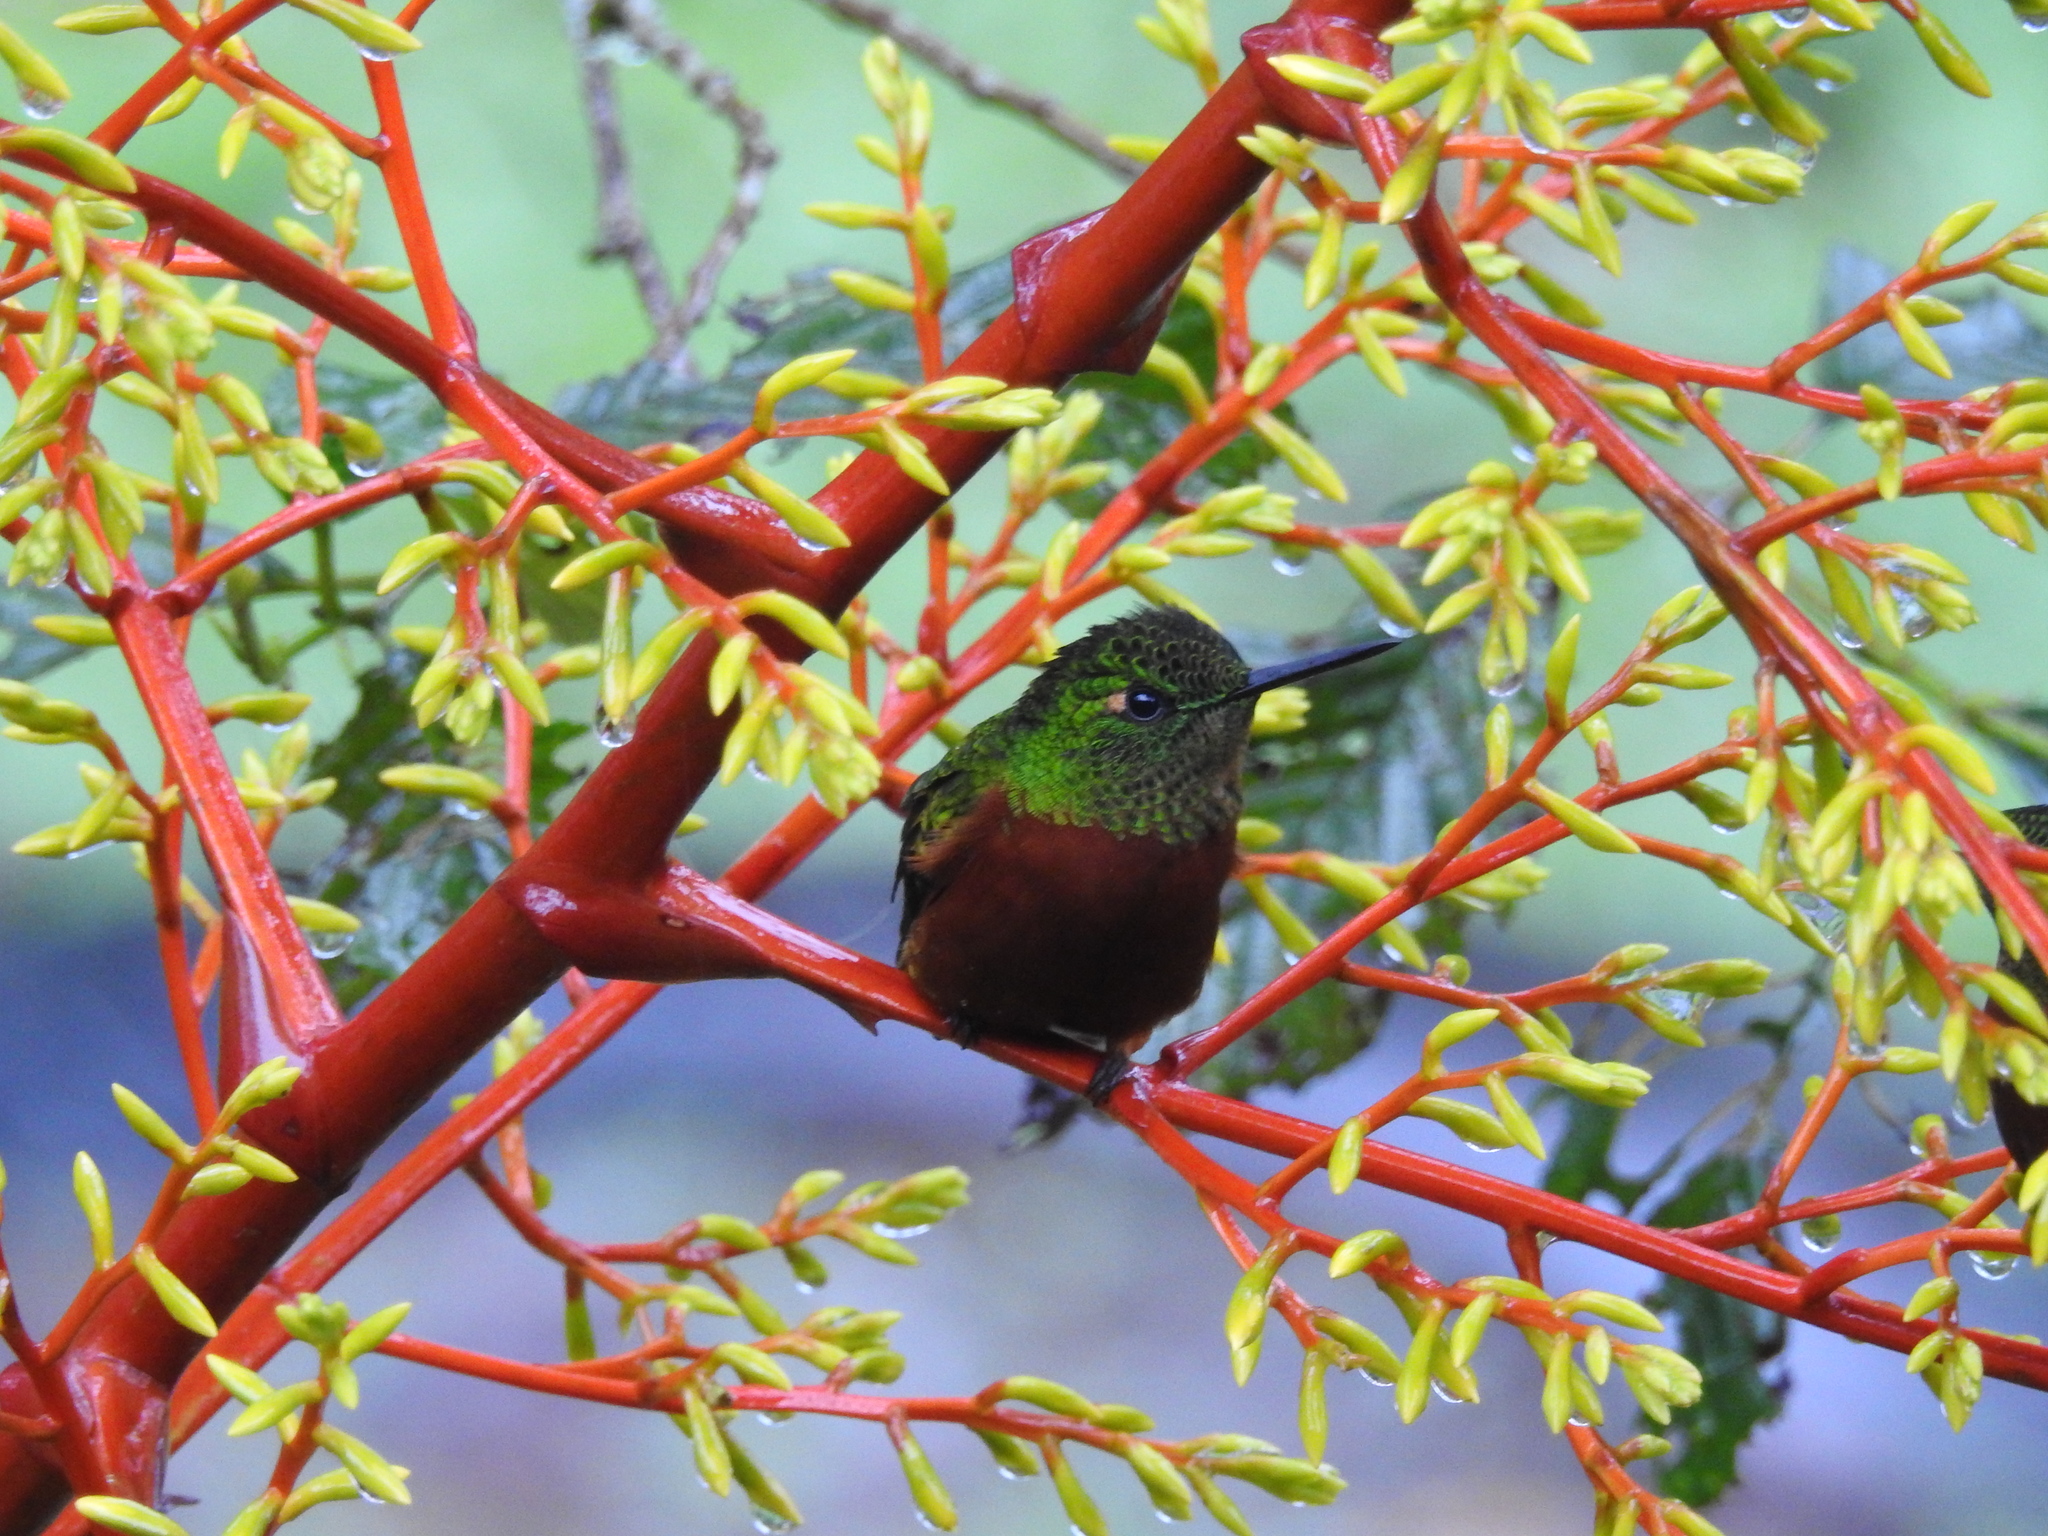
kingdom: Animalia
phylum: Chordata
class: Aves
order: Apodiformes
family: Trochilidae
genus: Boissonneaua
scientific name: Boissonneaua matthewsii
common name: Chestnut-breasted coronet
